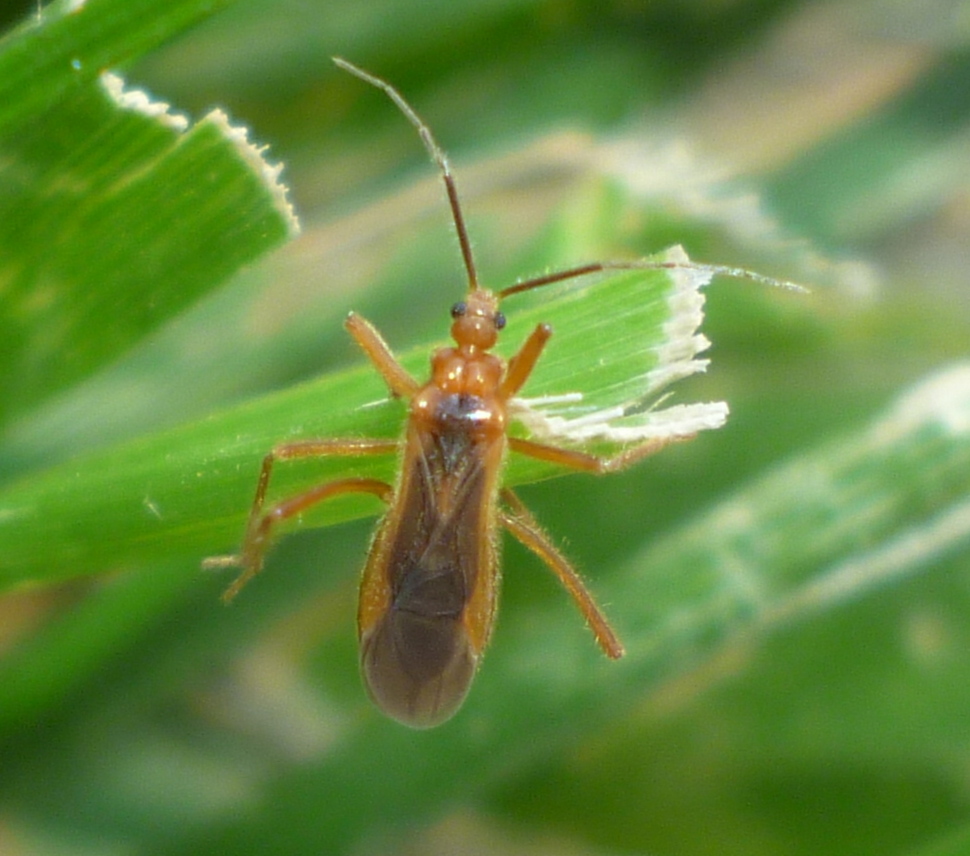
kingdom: Animalia
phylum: Arthropoda
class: Insecta
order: Hemiptera
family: Reduviidae
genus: Oncerotrachelus
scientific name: Oncerotrachelus acuminatus
